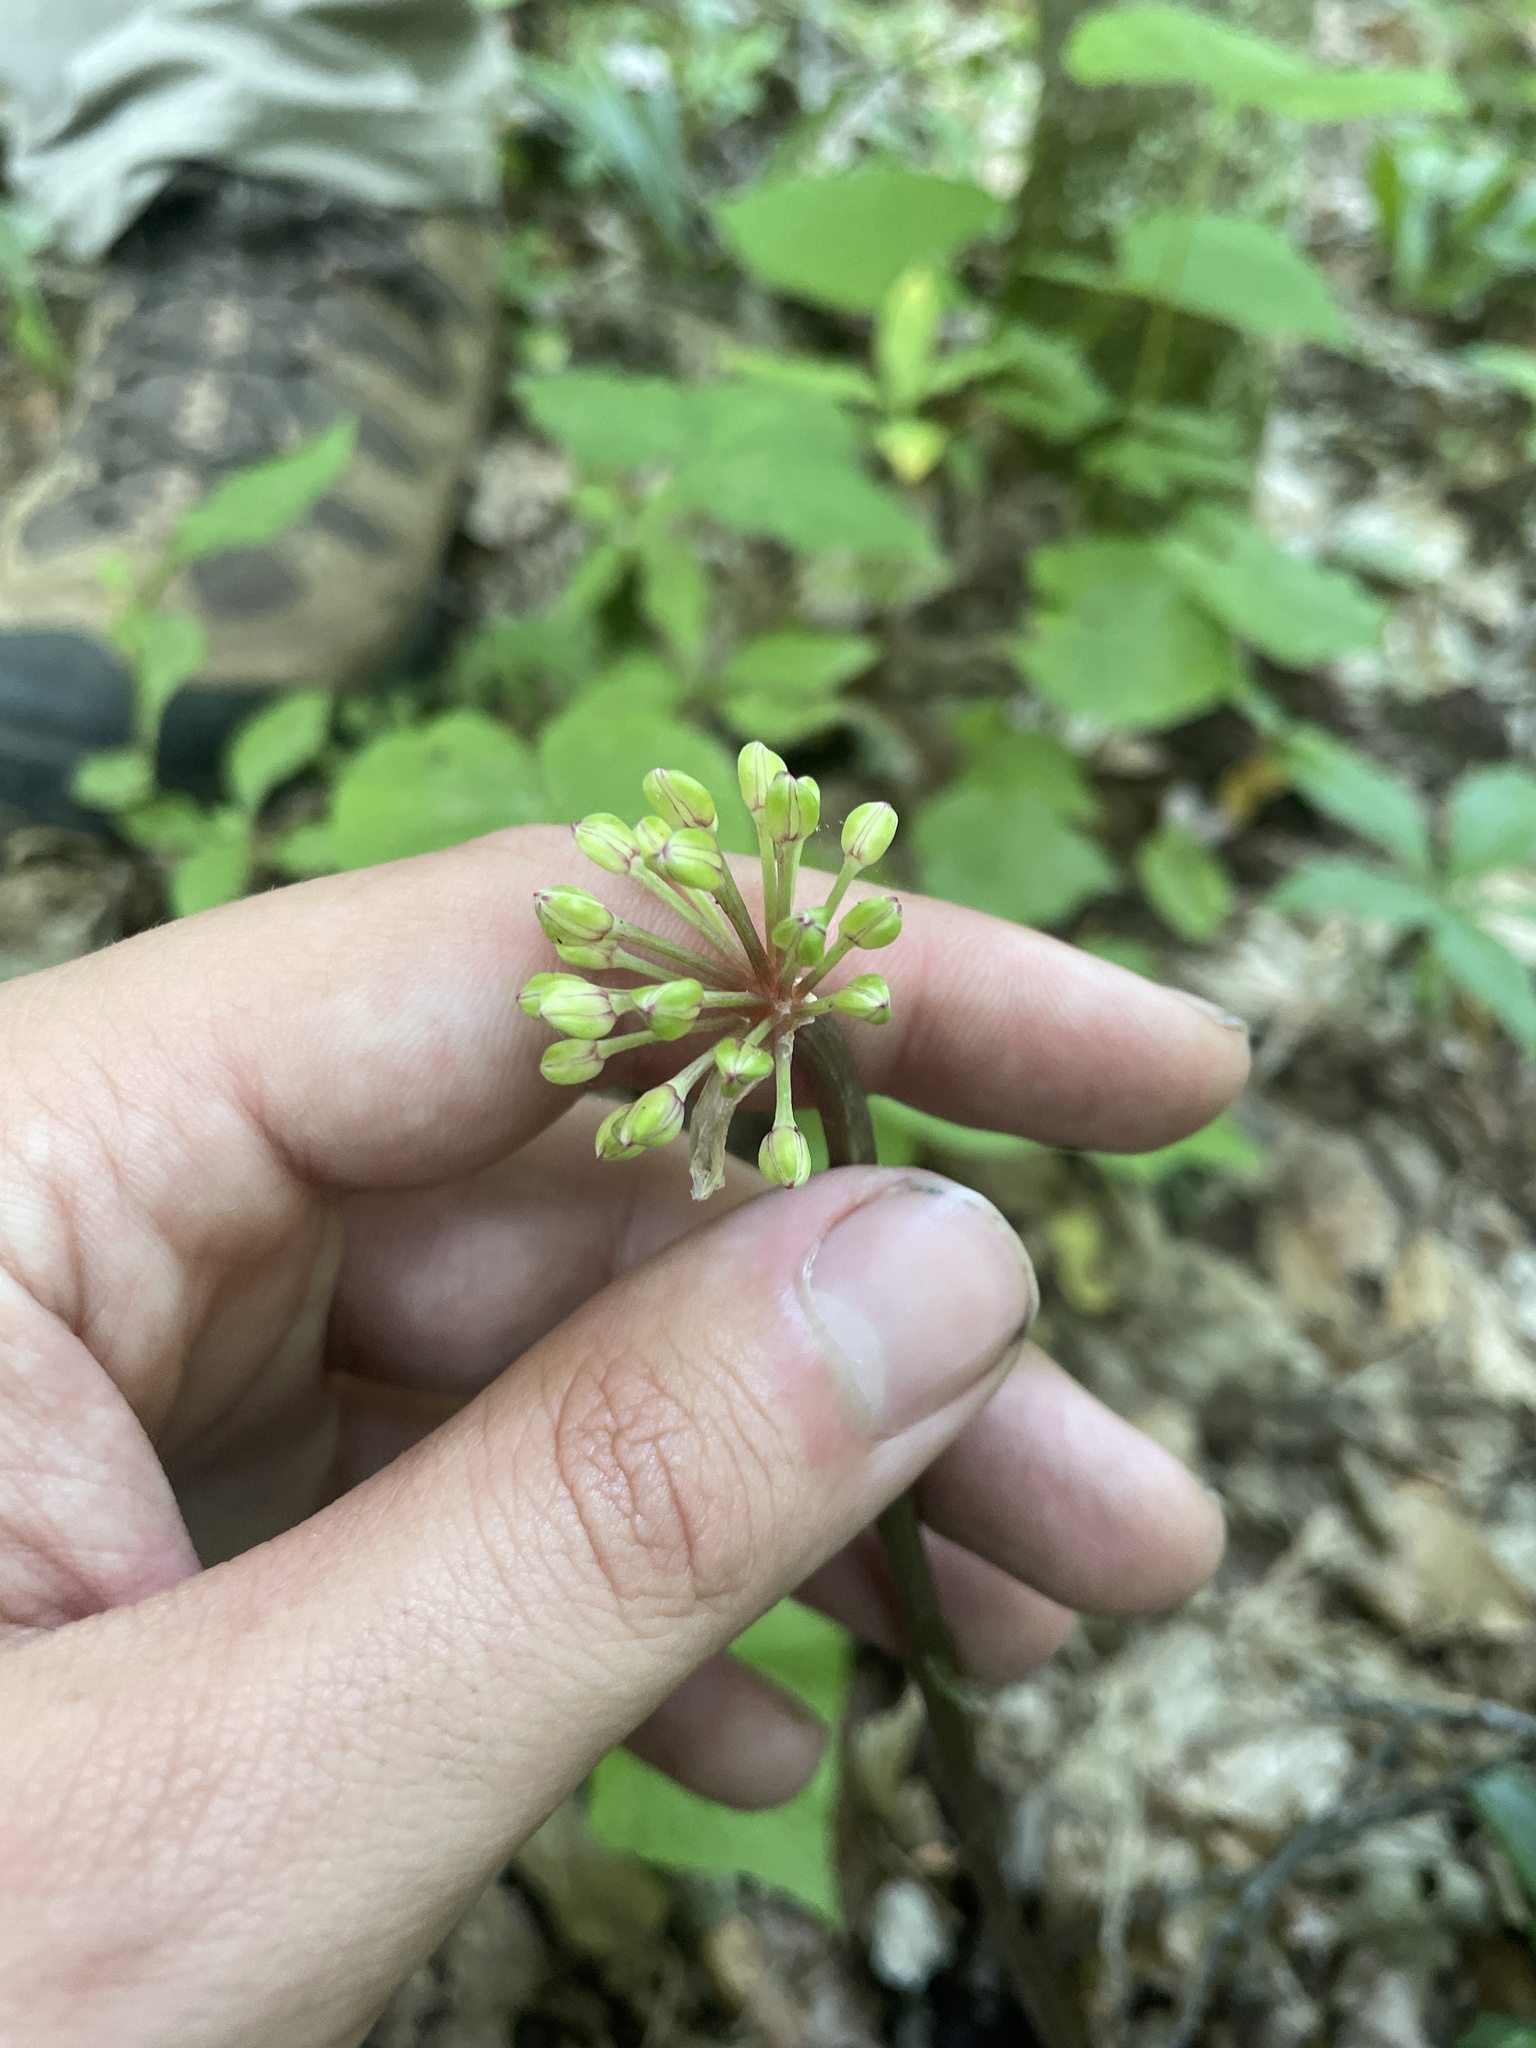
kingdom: Plantae
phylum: Tracheophyta
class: Liliopsida
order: Asparagales
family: Amaryllidaceae
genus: Allium
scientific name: Allium tricoccum
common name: Ramp
